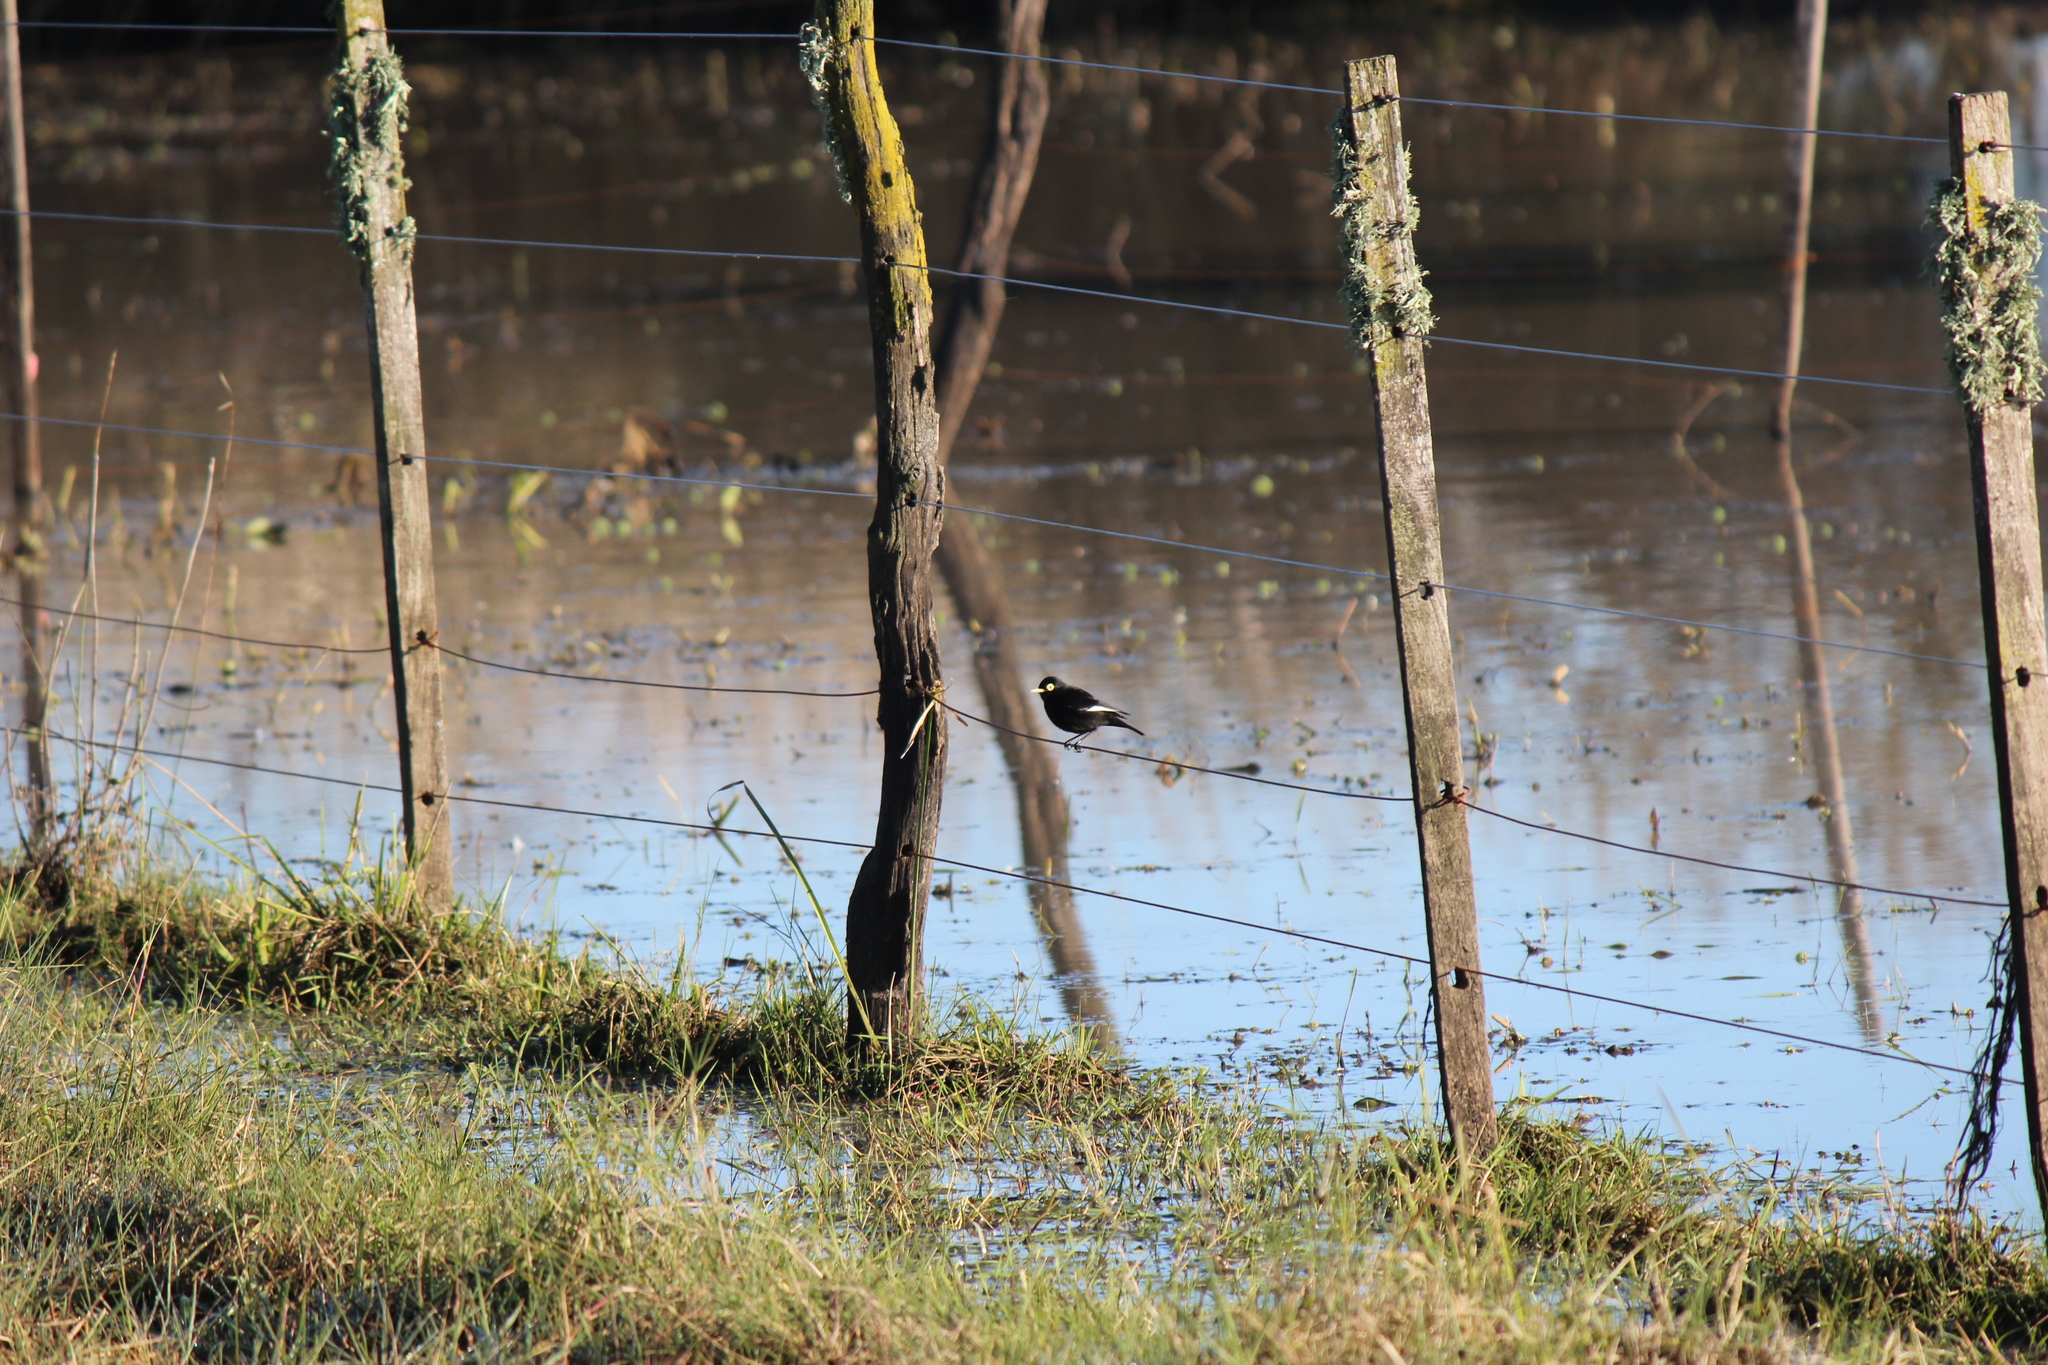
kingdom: Animalia
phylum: Chordata
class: Aves
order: Passeriformes
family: Tyrannidae
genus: Hymenops
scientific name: Hymenops perspicillatus
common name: Spectacled tyrant
